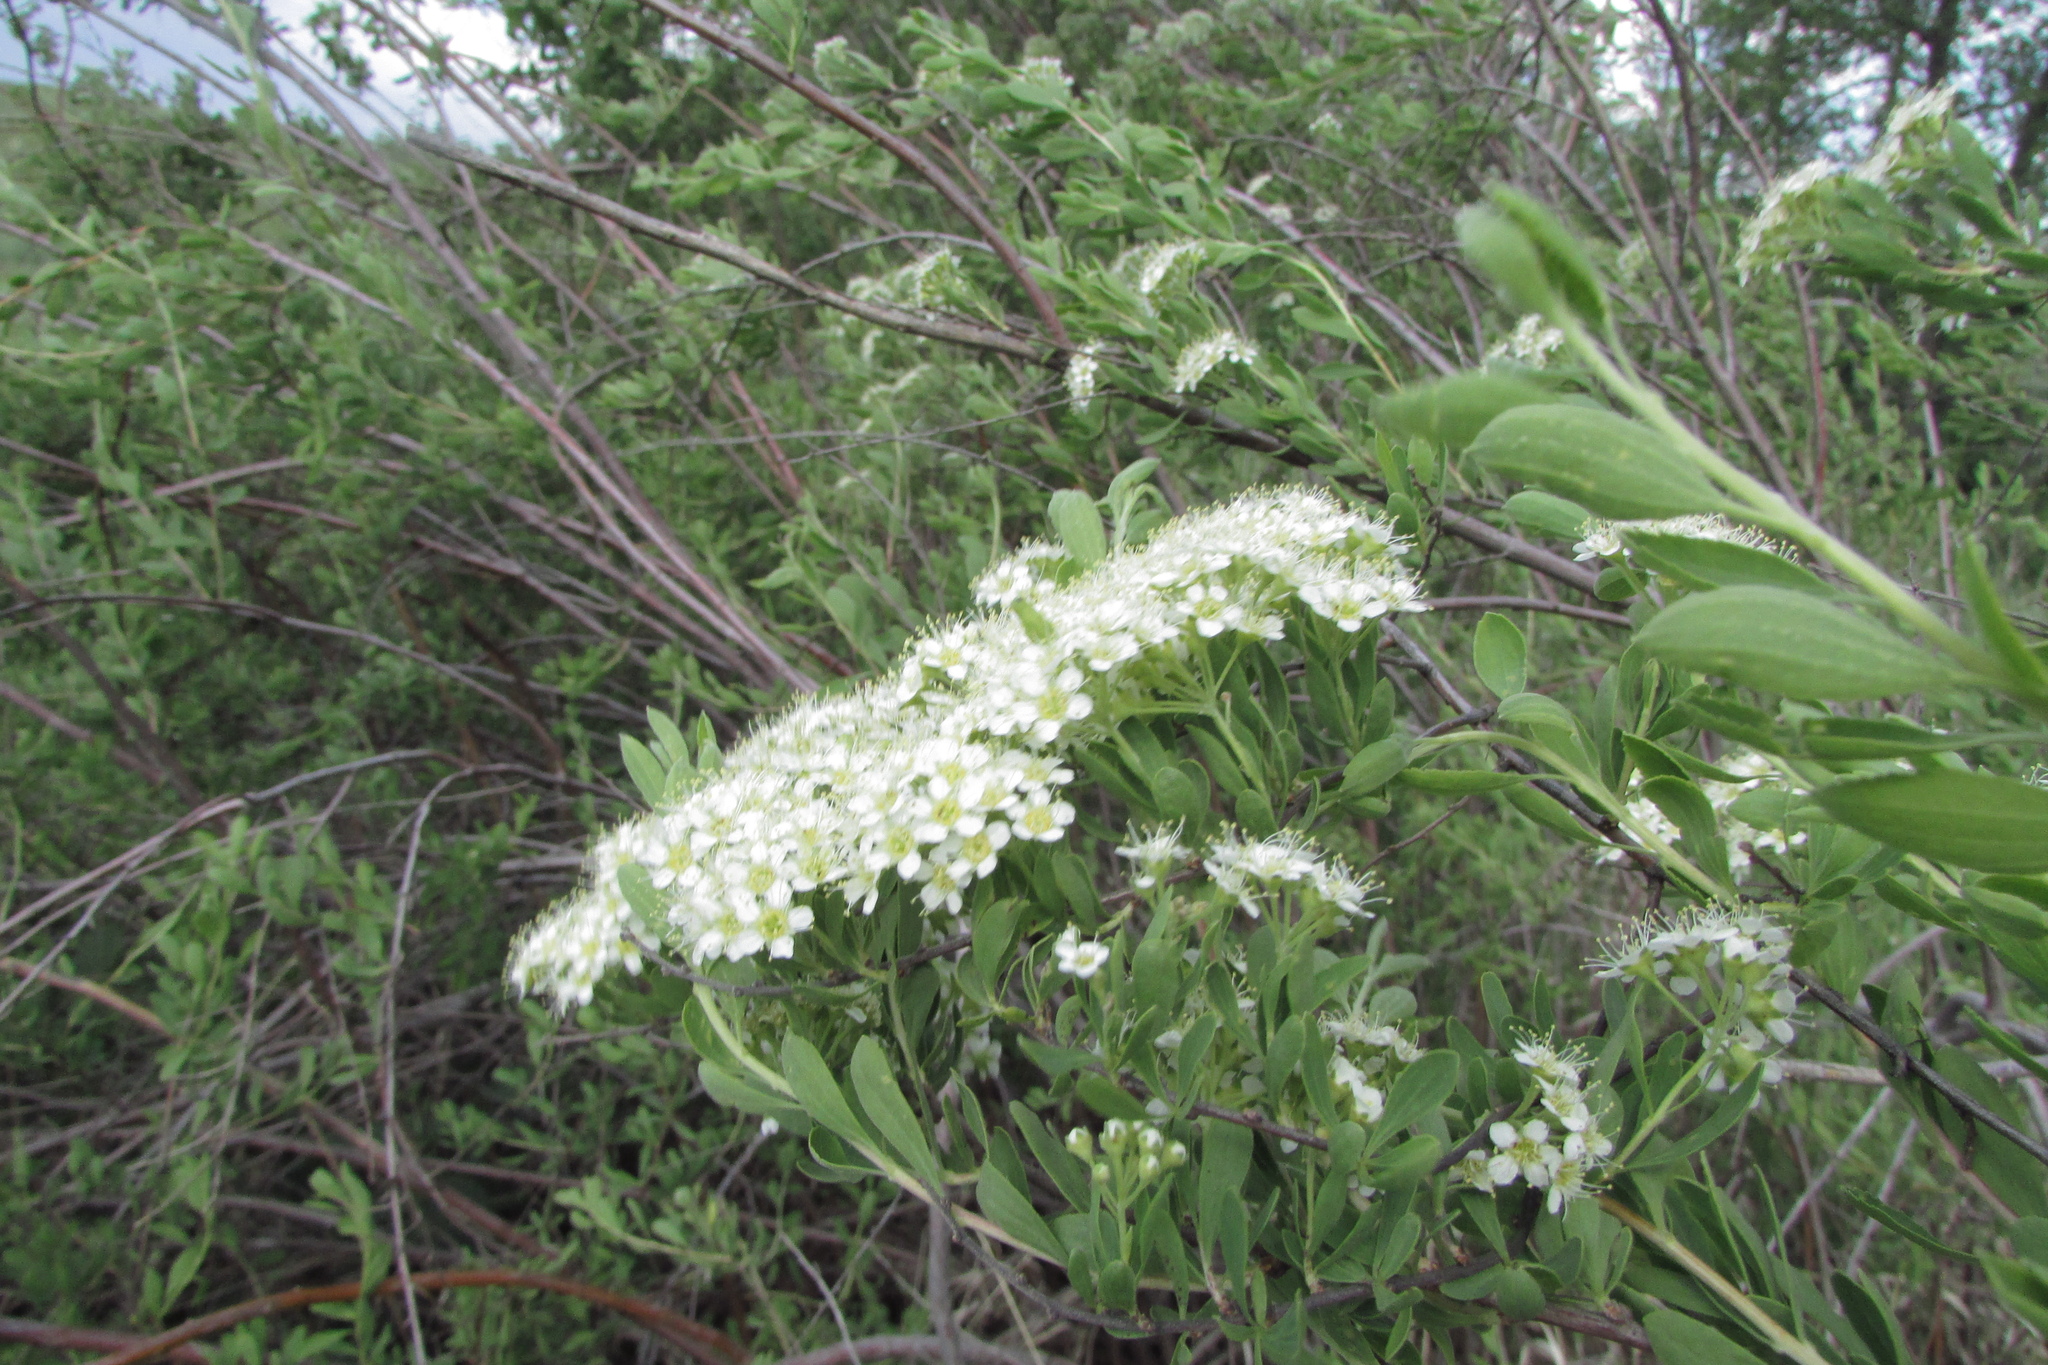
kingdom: Plantae
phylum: Tracheophyta
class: Magnoliopsida
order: Rosales
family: Rosaceae
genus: Spiraea
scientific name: Spiraea crenata
